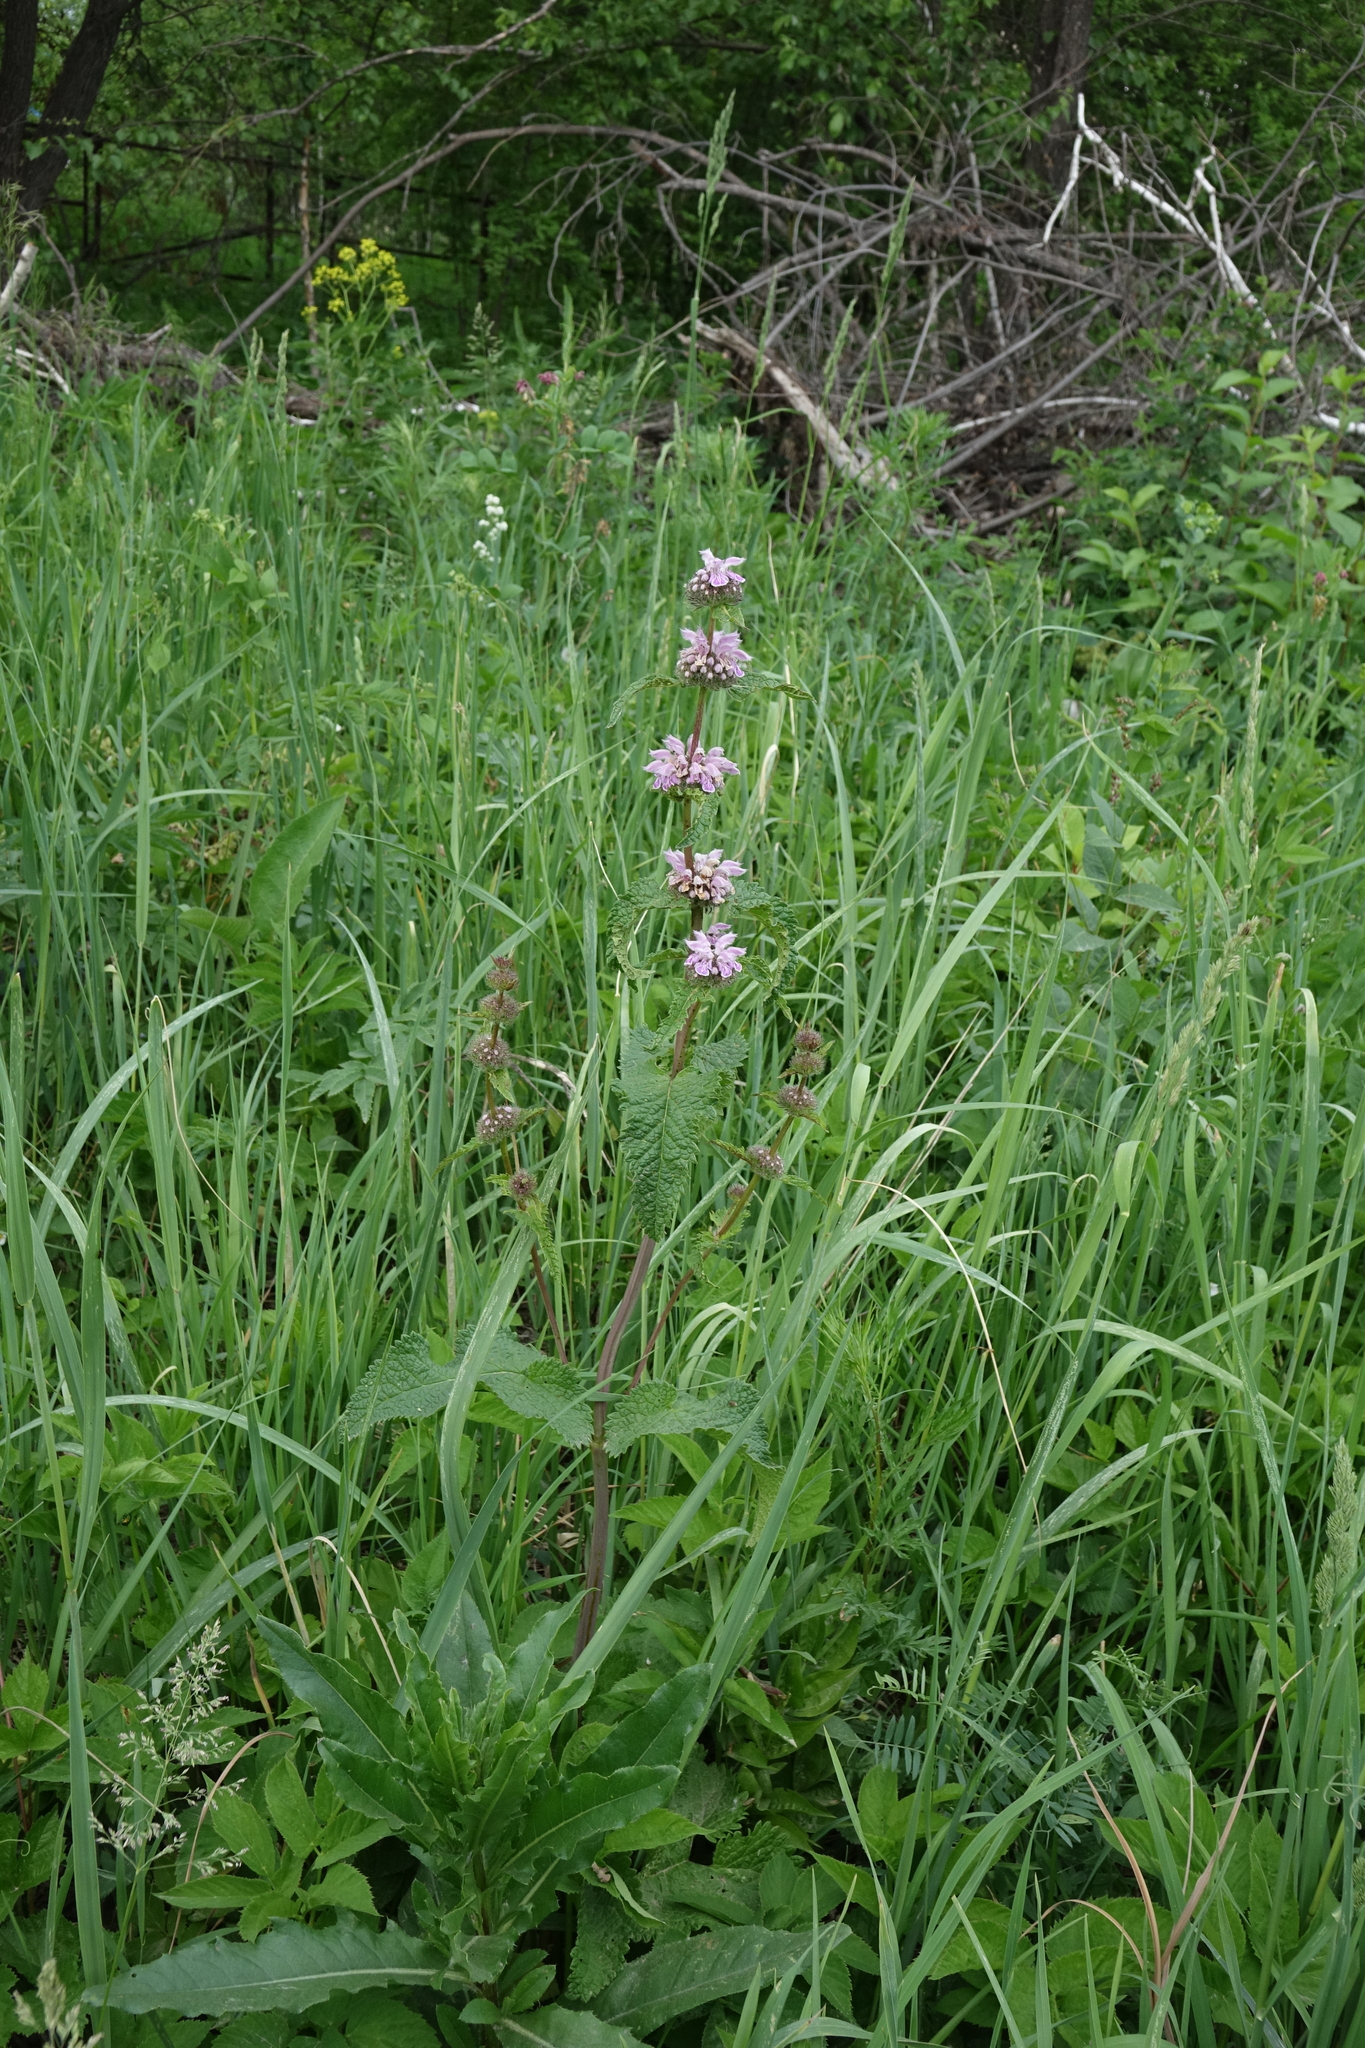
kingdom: Plantae
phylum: Tracheophyta
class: Magnoliopsida
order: Lamiales
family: Lamiaceae
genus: Phlomoides
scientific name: Phlomoides tuberosa
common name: Tuberous jerusalem sage
